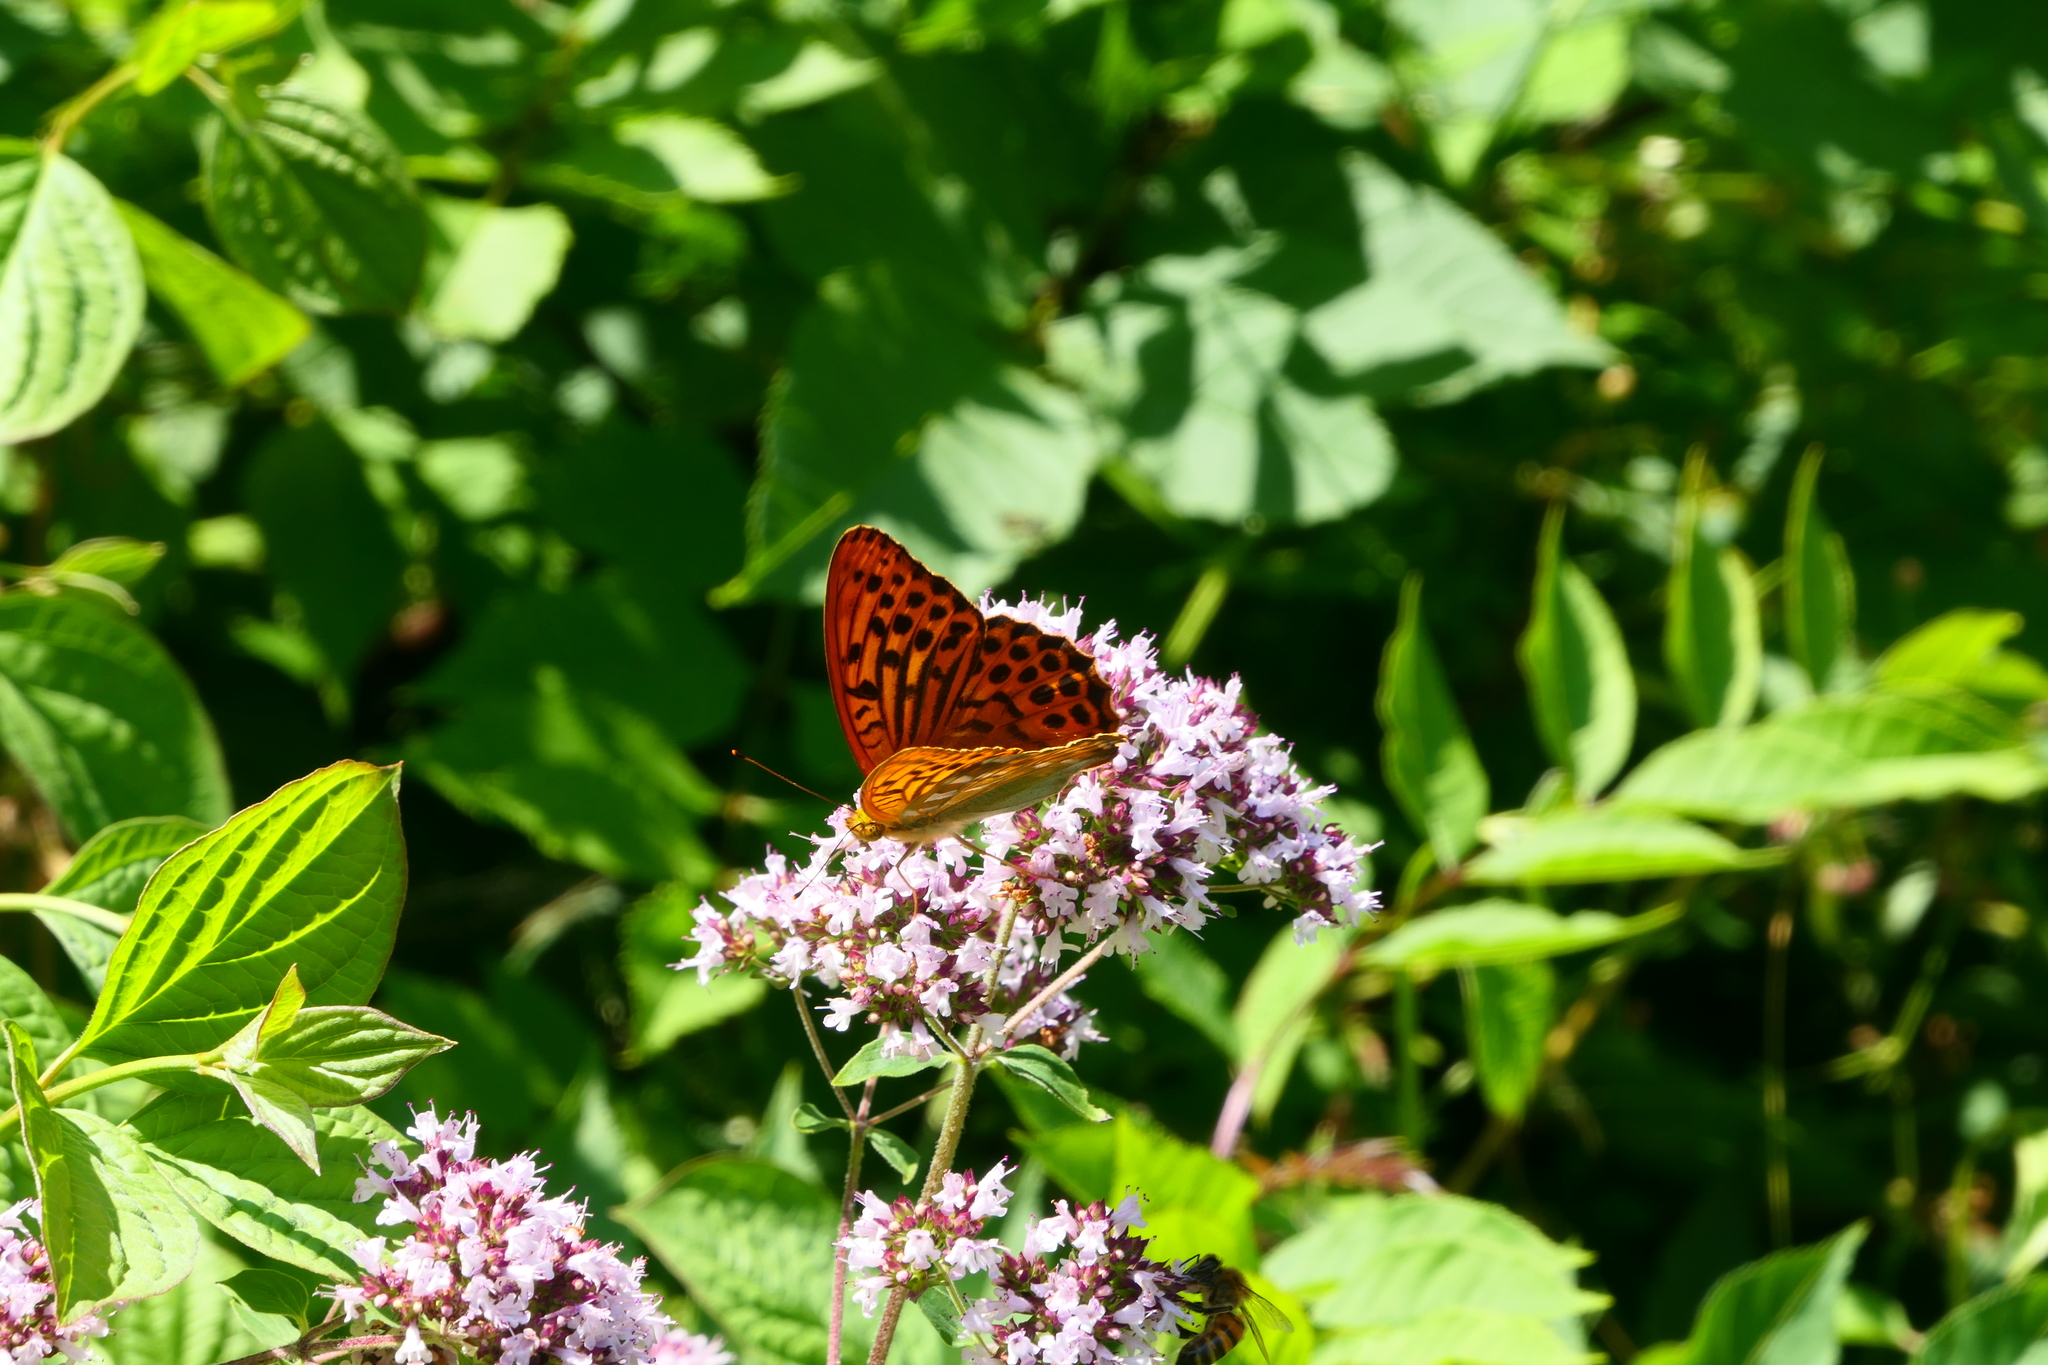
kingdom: Animalia
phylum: Arthropoda
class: Insecta
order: Lepidoptera
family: Nymphalidae
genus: Argynnis
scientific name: Argynnis paphia
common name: Silver-washed fritillary
